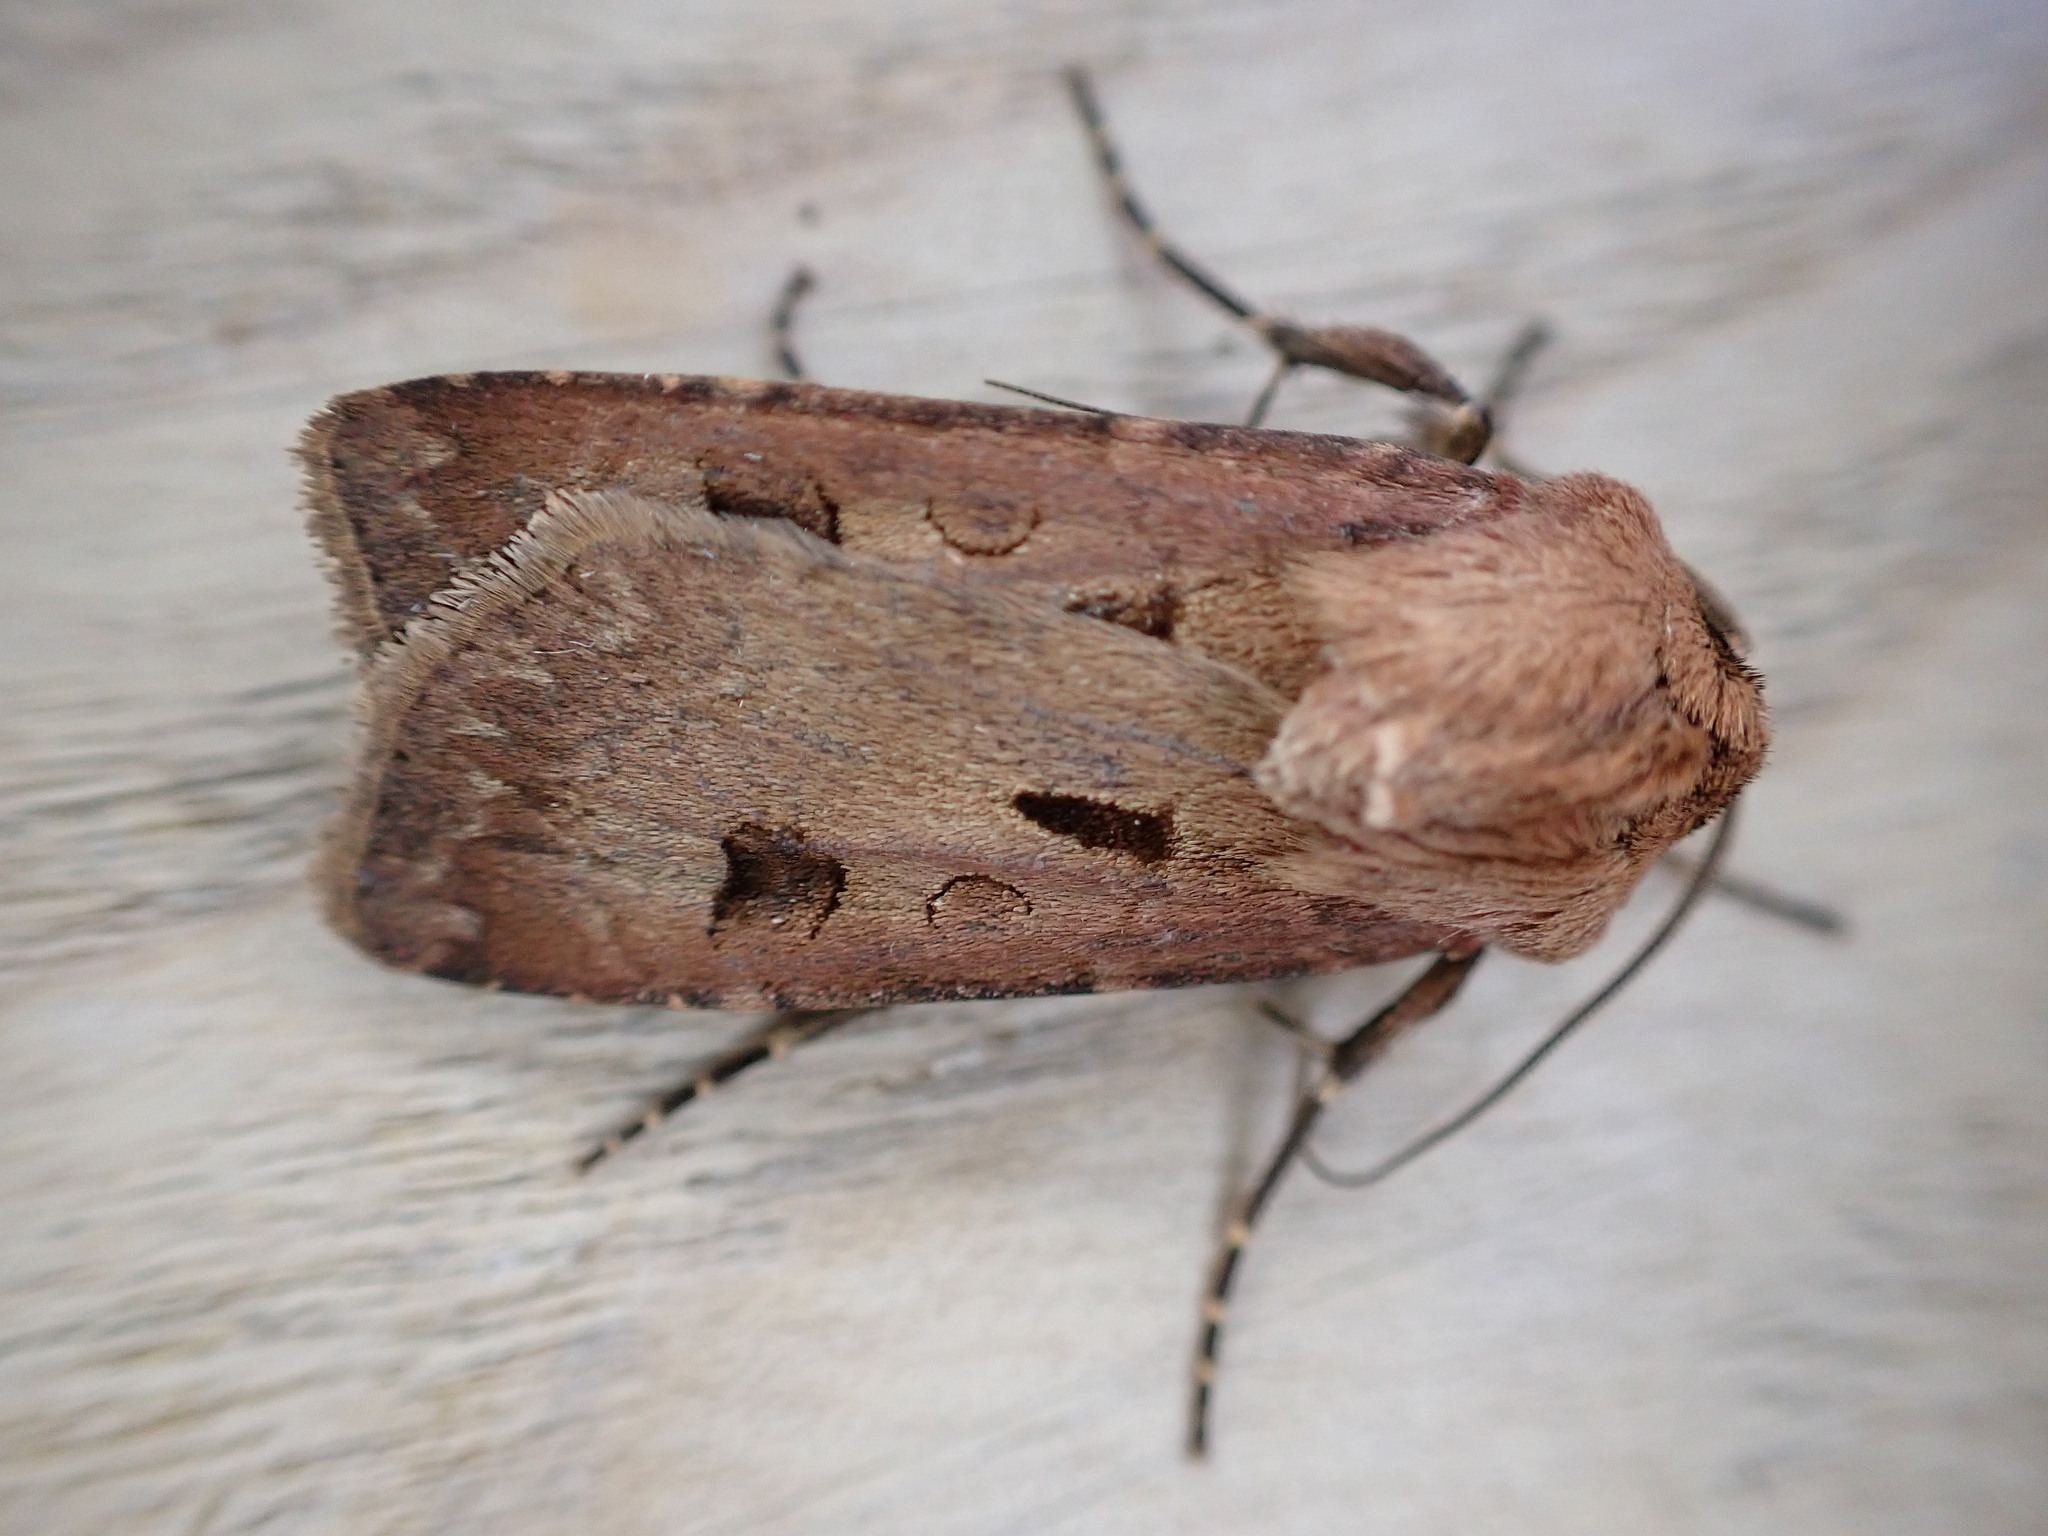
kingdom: Animalia
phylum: Arthropoda
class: Insecta
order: Lepidoptera
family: Noctuidae
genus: Agrotis
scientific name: Agrotis exclamationis
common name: Heart and dart
